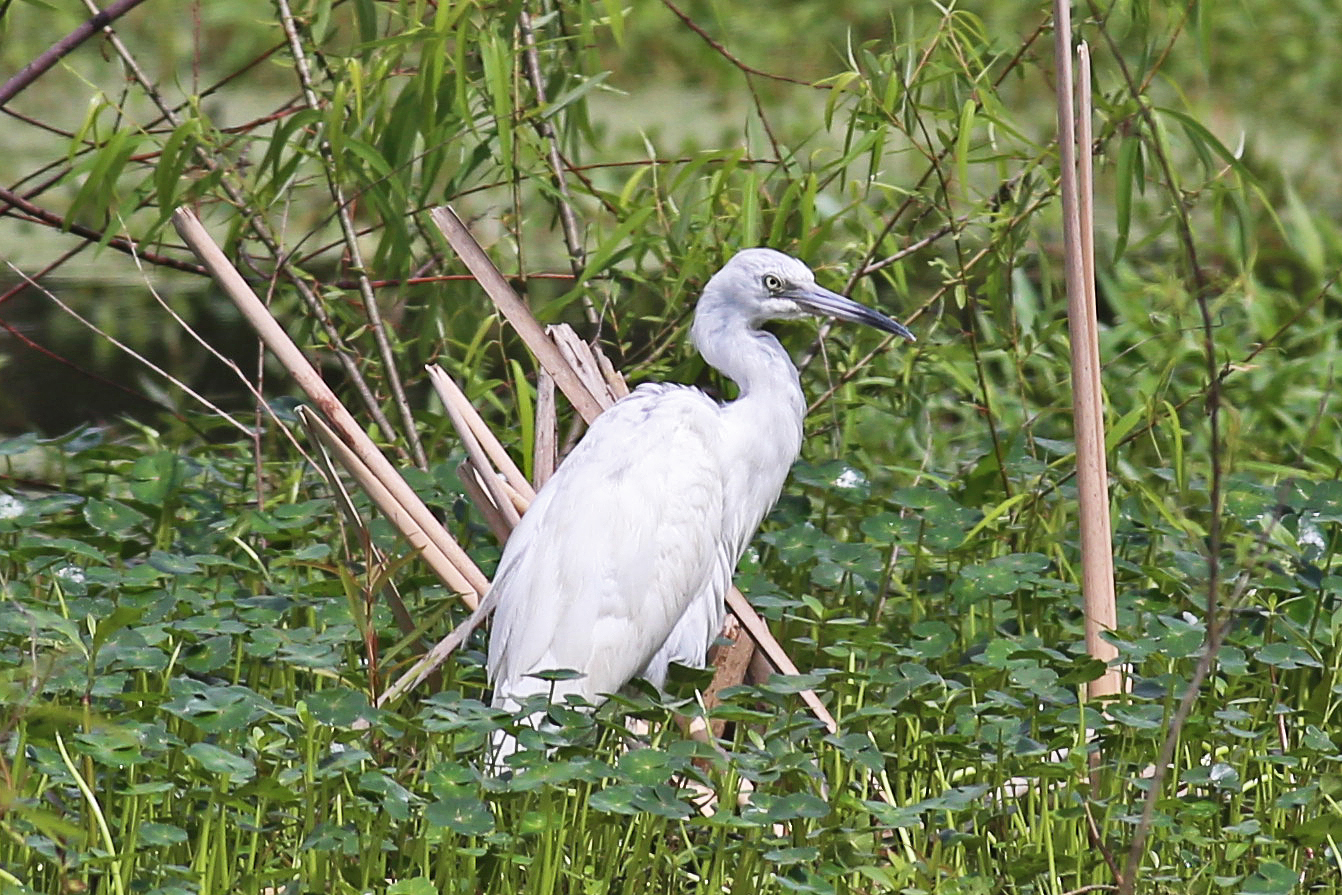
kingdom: Animalia
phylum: Chordata
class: Aves
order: Pelecaniformes
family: Ardeidae
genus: Egretta
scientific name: Egretta caerulea
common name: Little blue heron
